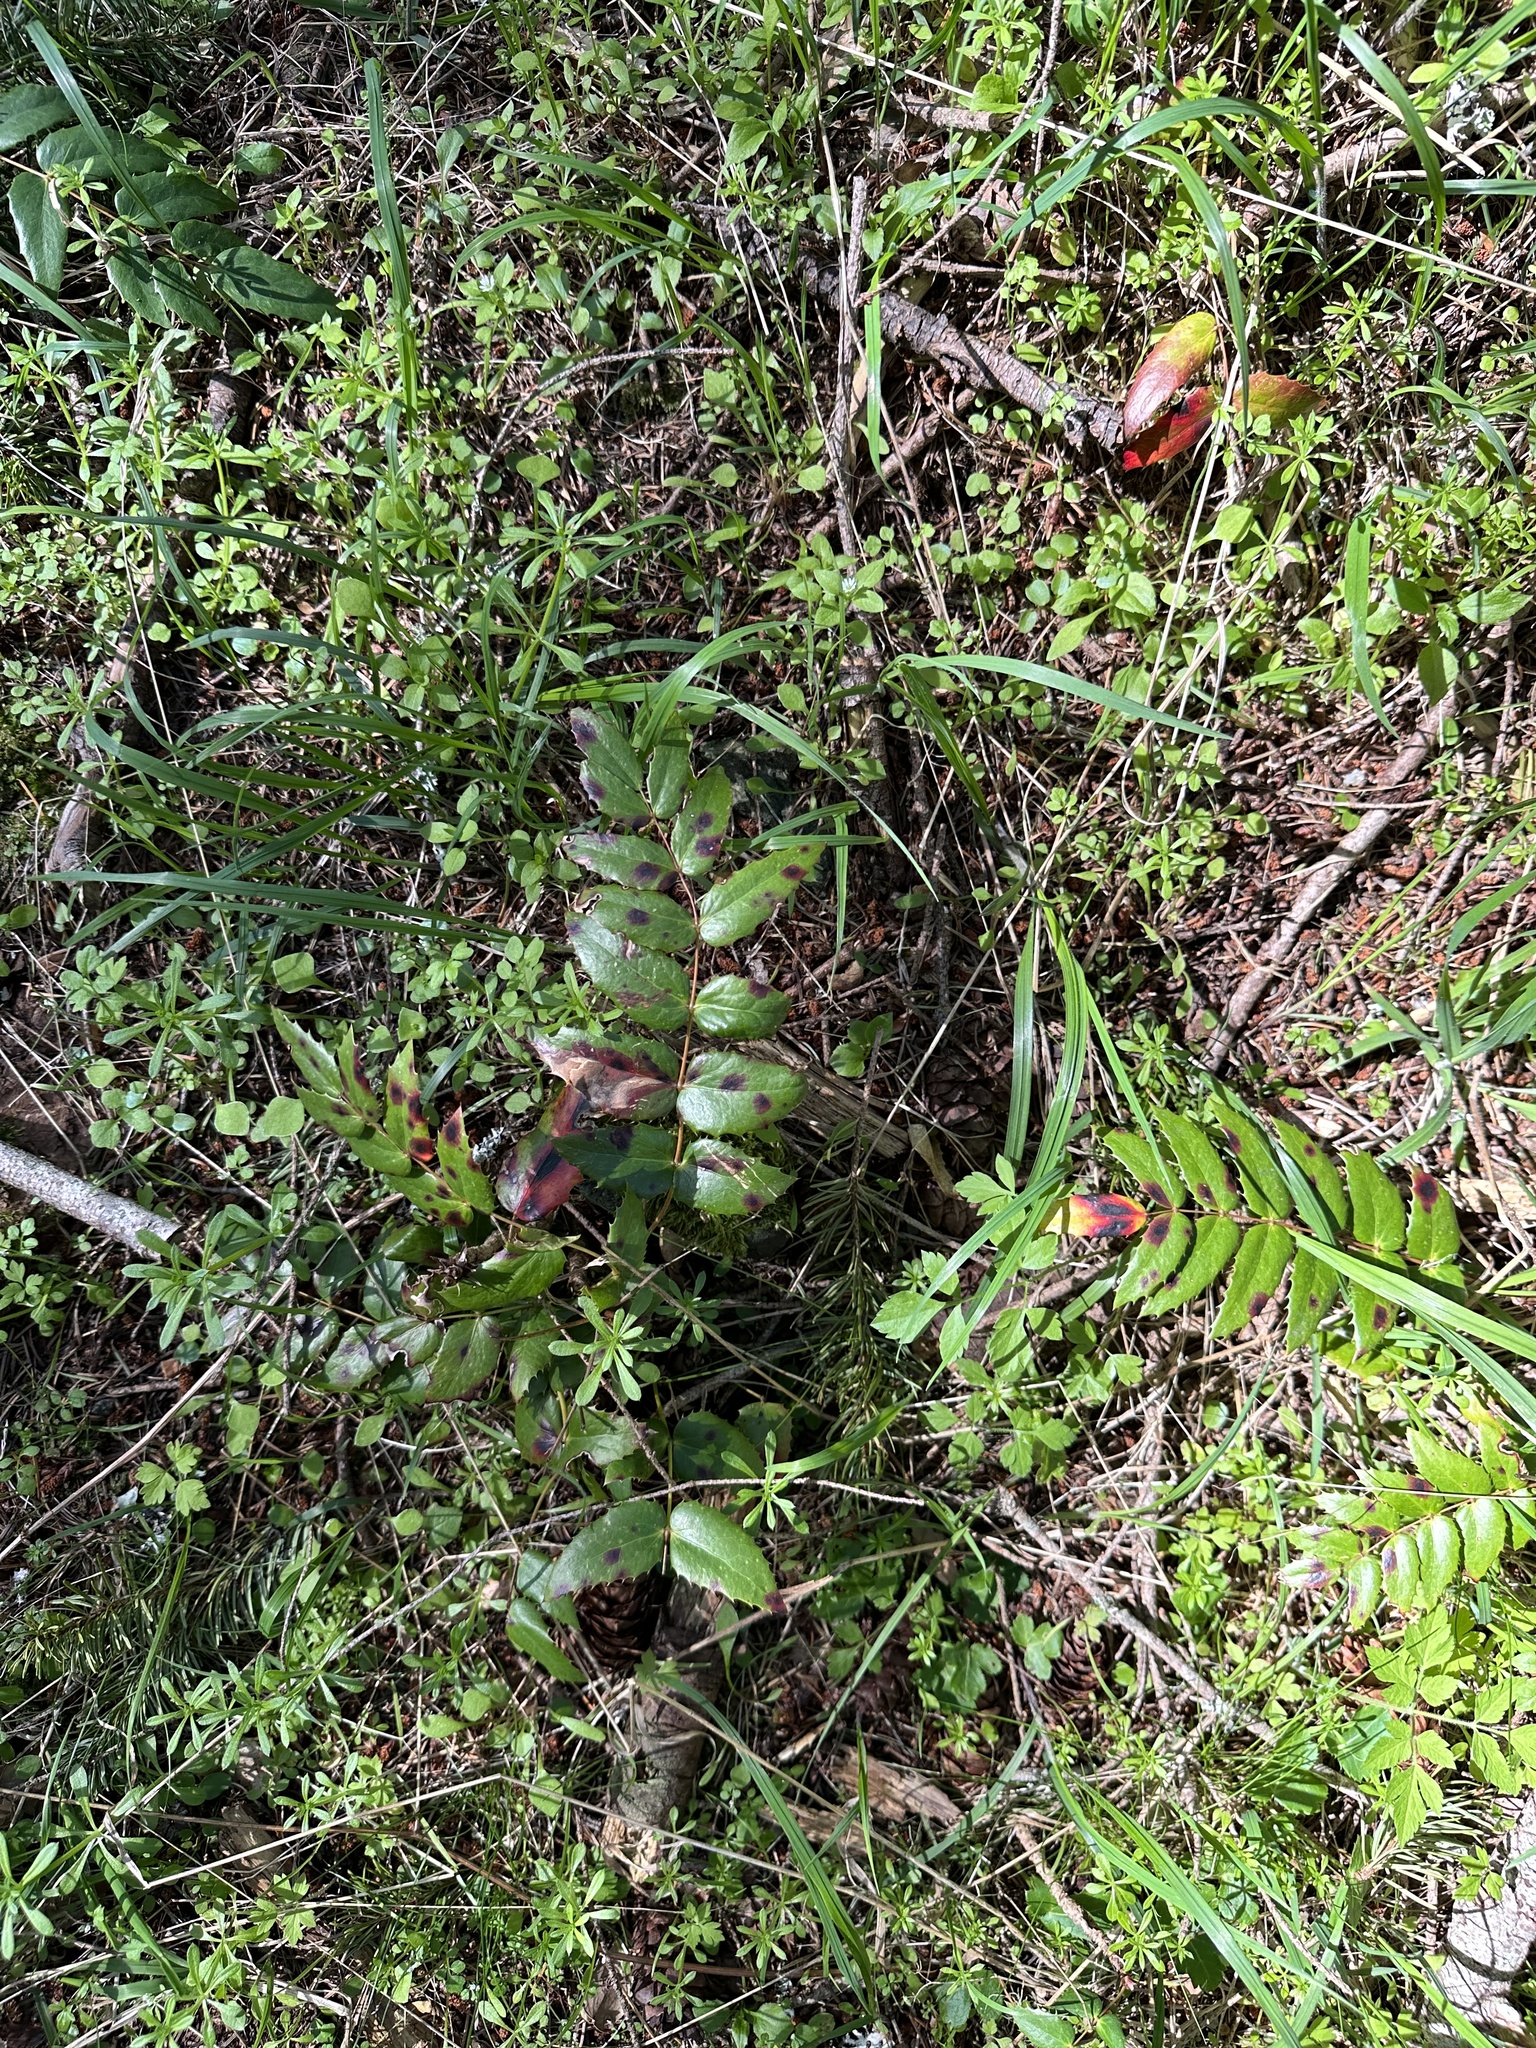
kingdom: Plantae
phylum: Tracheophyta
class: Magnoliopsida
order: Ranunculales
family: Berberidaceae
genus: Mahonia
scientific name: Mahonia nervosa
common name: Cascade oregon-grape
